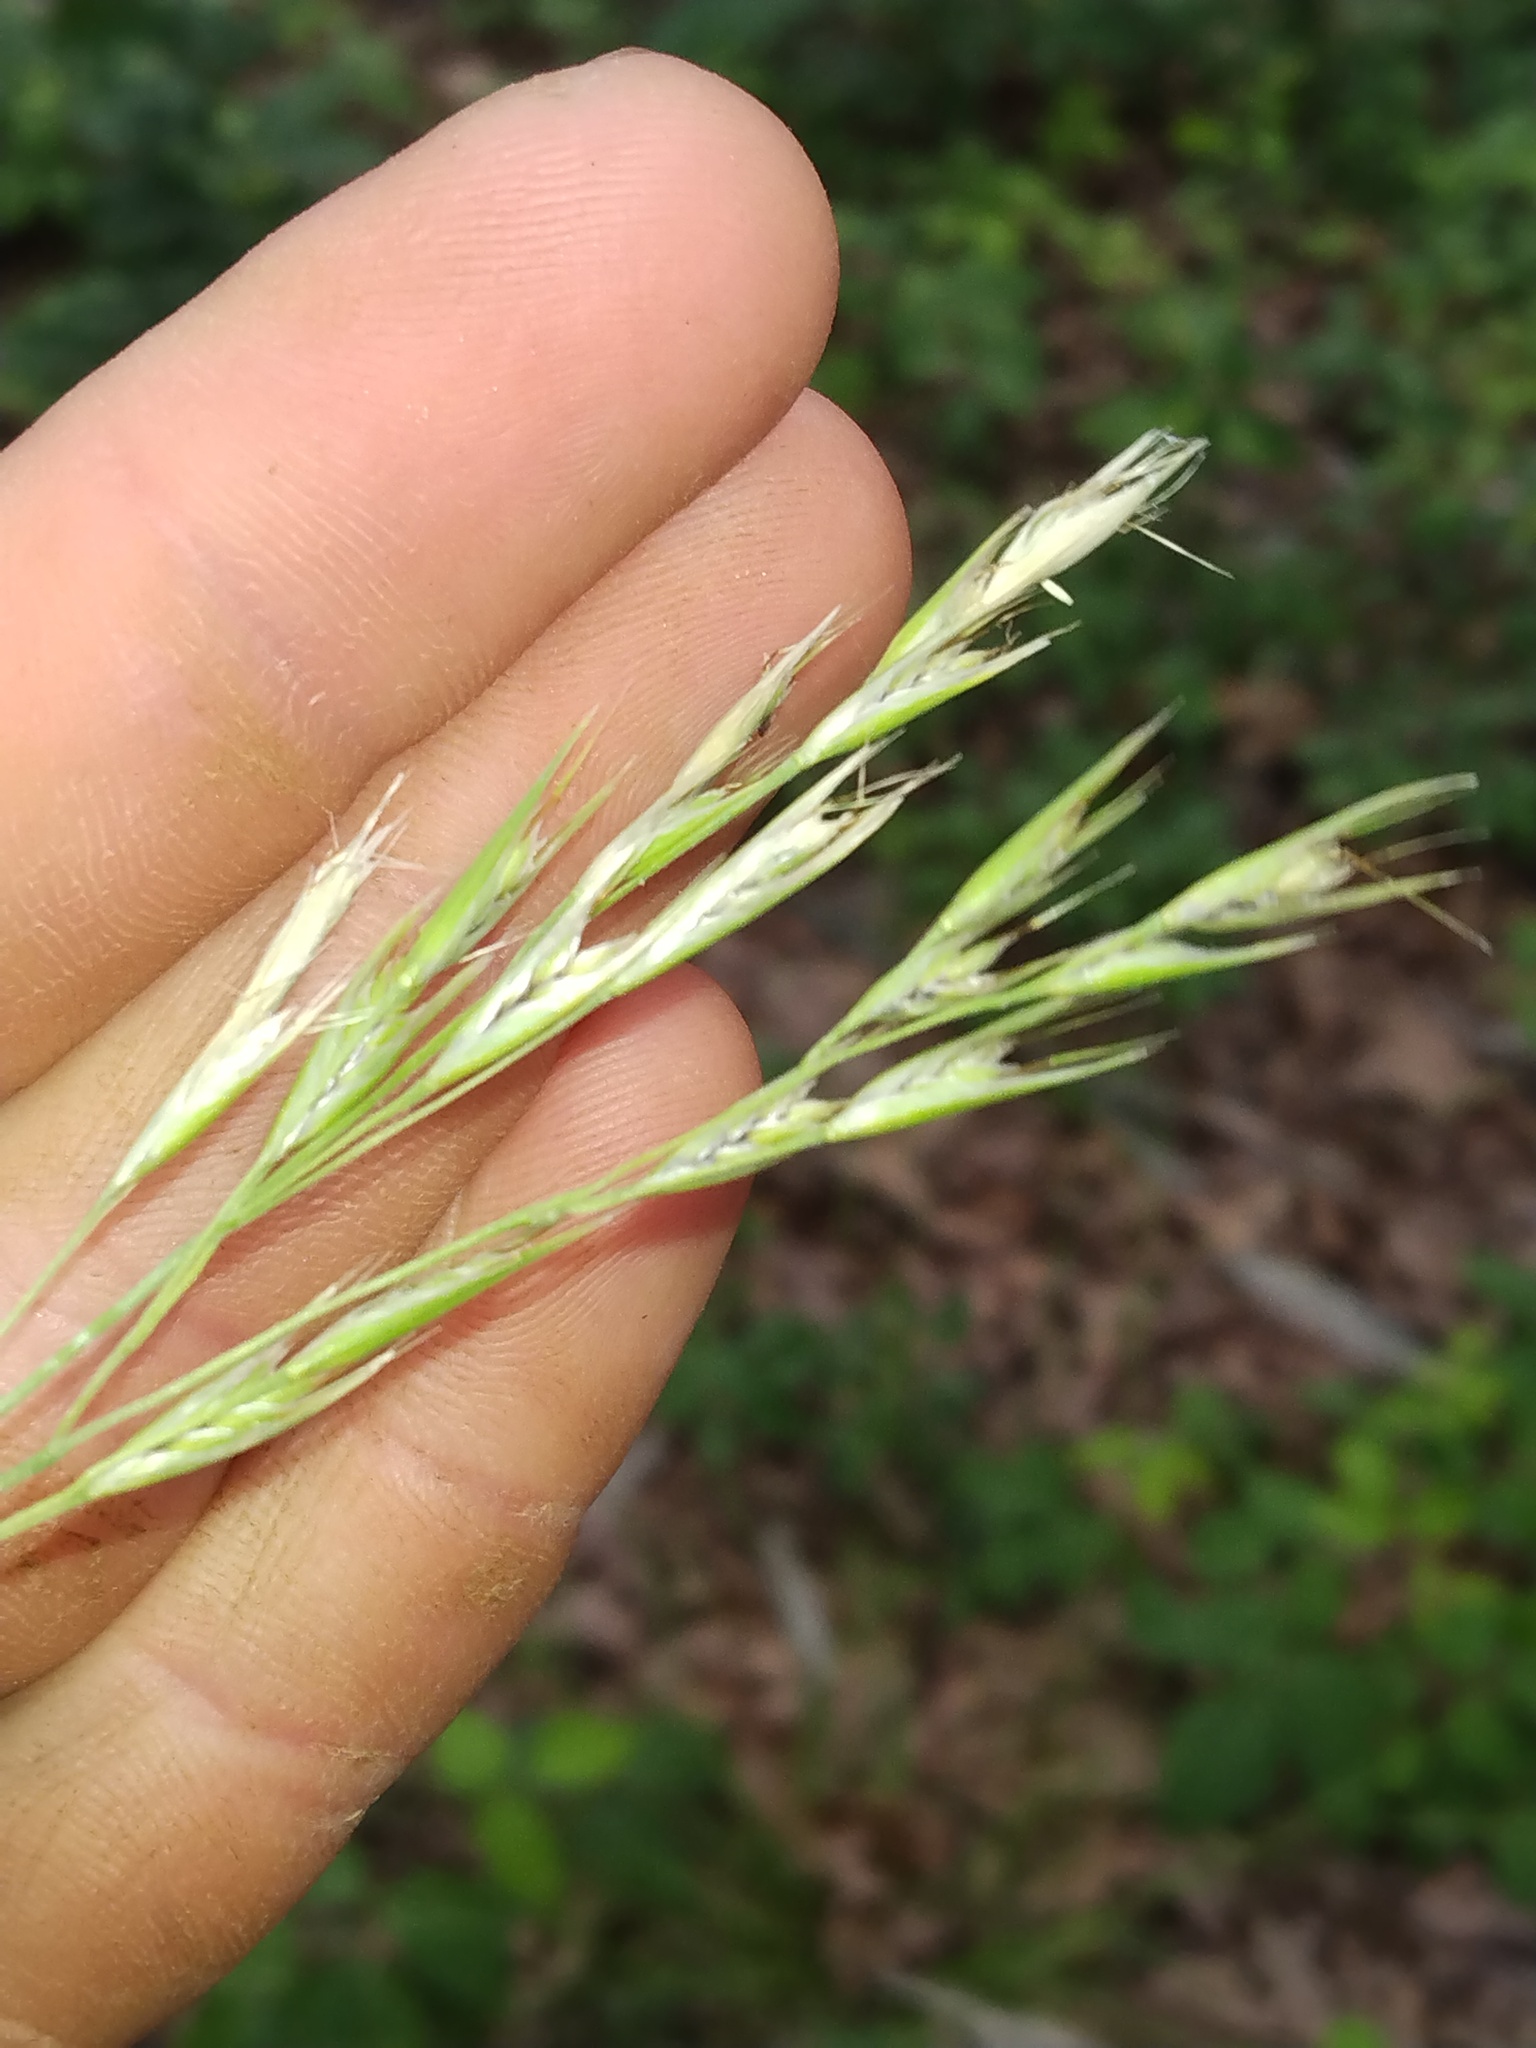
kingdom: Plantae
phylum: Tracheophyta
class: Liliopsida
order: Poales
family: Poaceae
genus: Danthonia
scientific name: Danthonia spicata
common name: Common wild oatgrass
